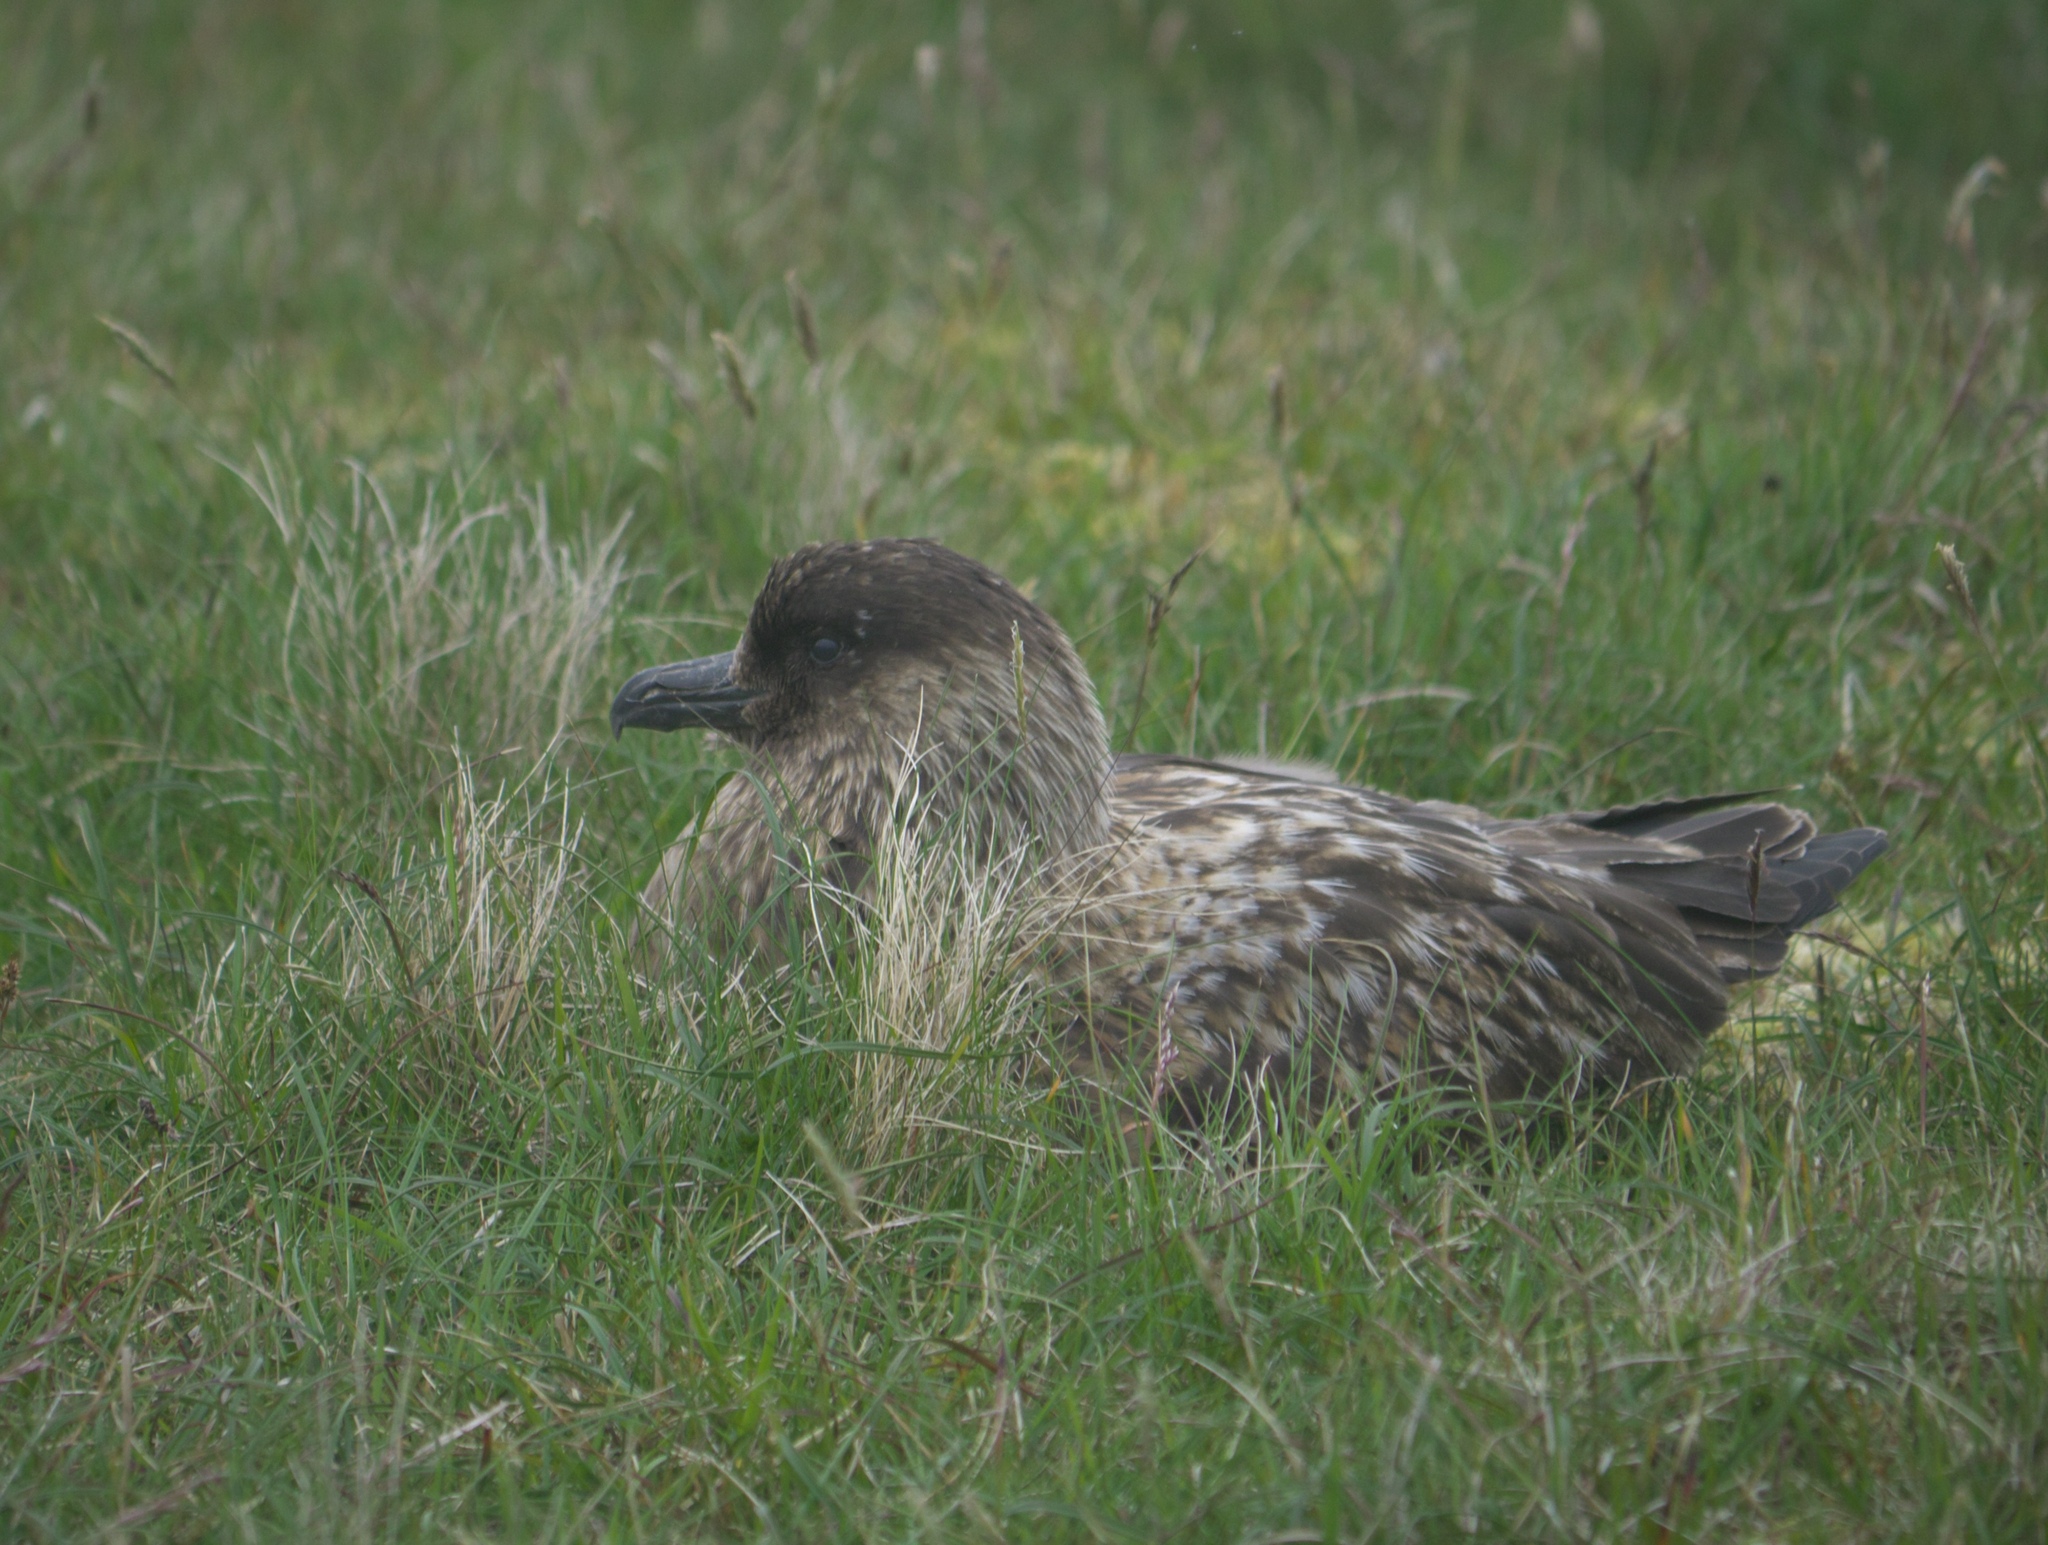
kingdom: Animalia
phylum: Chordata
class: Aves
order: Charadriiformes
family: Stercorariidae
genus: Stercorarius
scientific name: Stercorarius skua
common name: Great skua
